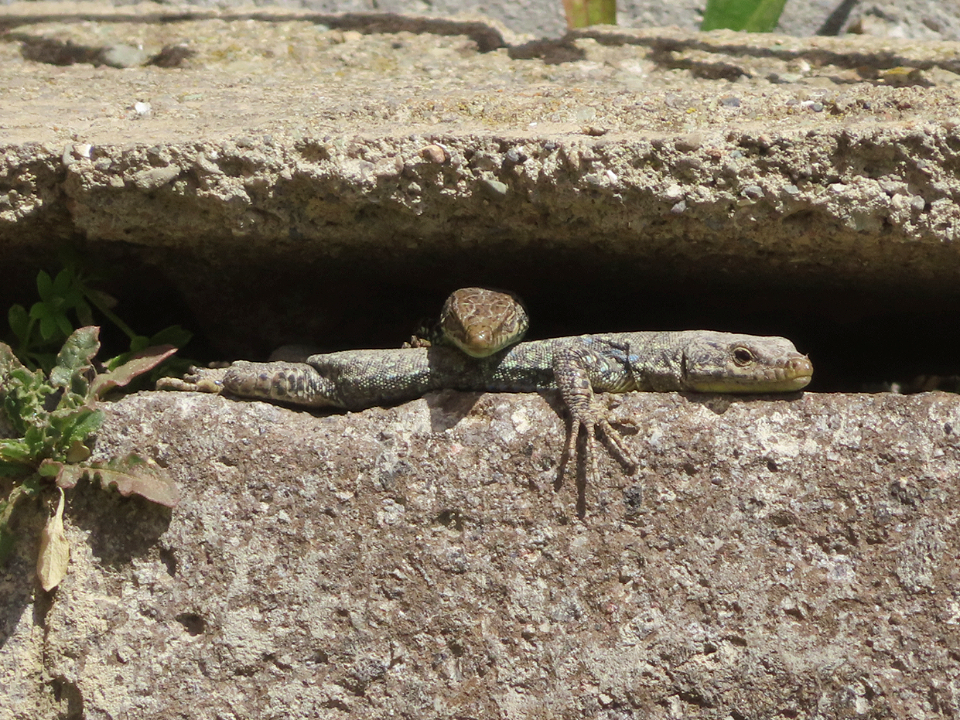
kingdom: Animalia
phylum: Chordata
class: Squamata
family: Lacertidae
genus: Darevskia
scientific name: Darevskia
